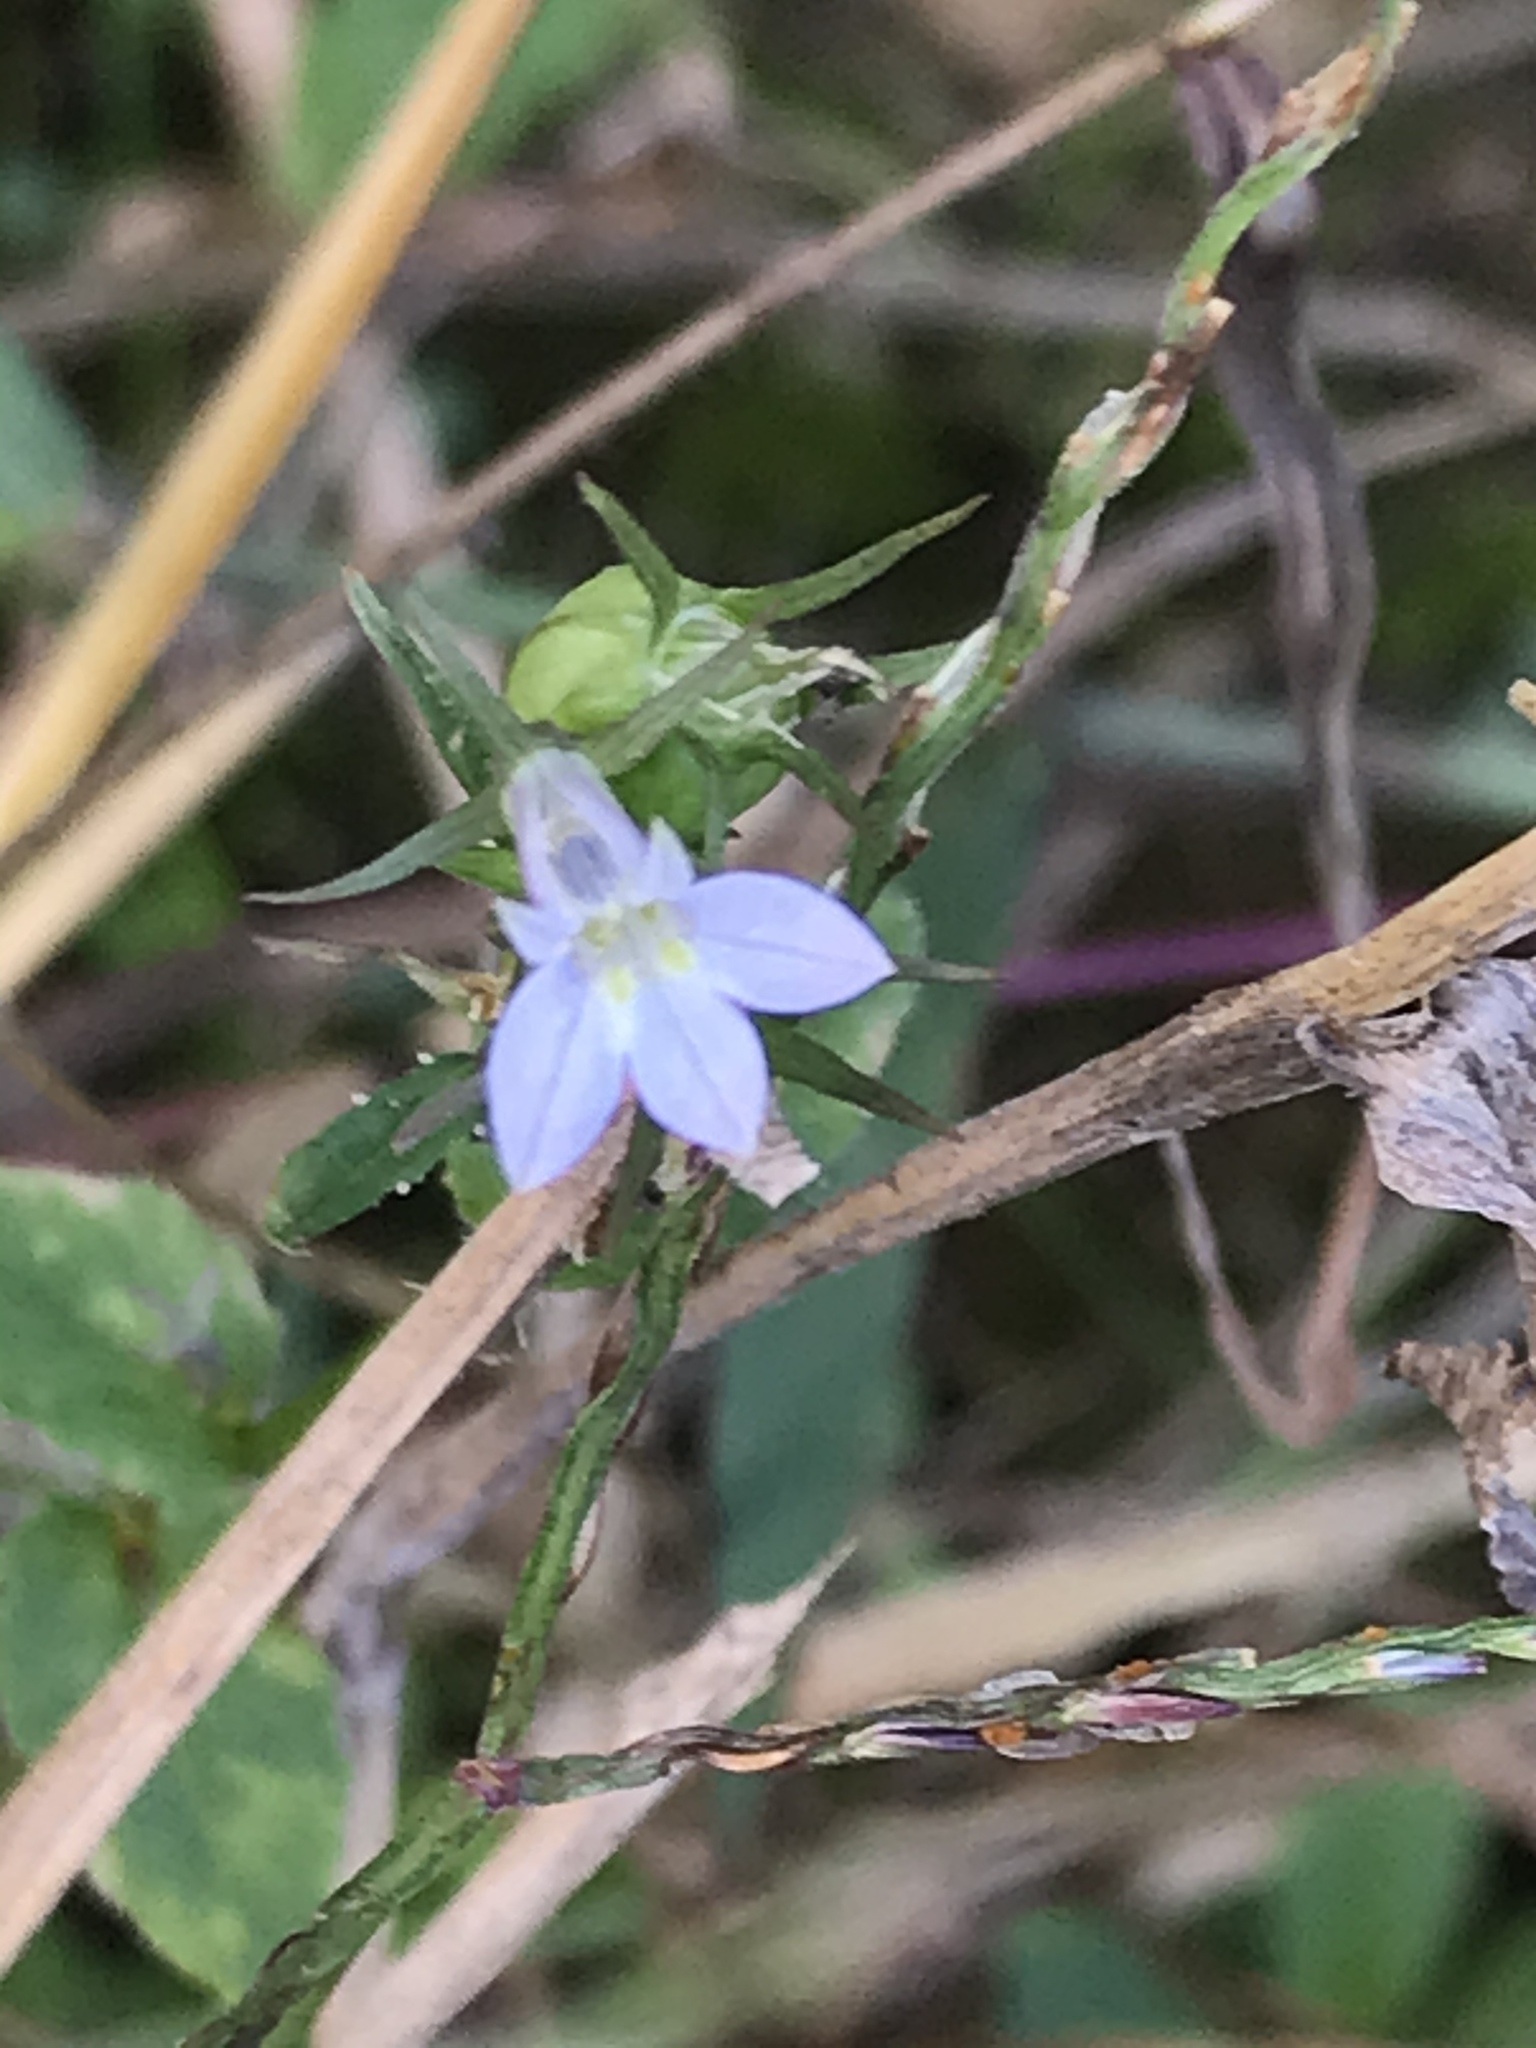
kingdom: Plantae
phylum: Tracheophyta
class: Magnoliopsida
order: Asterales
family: Campanulaceae
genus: Lobelia
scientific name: Lobelia inflata
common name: Indian tobacco
